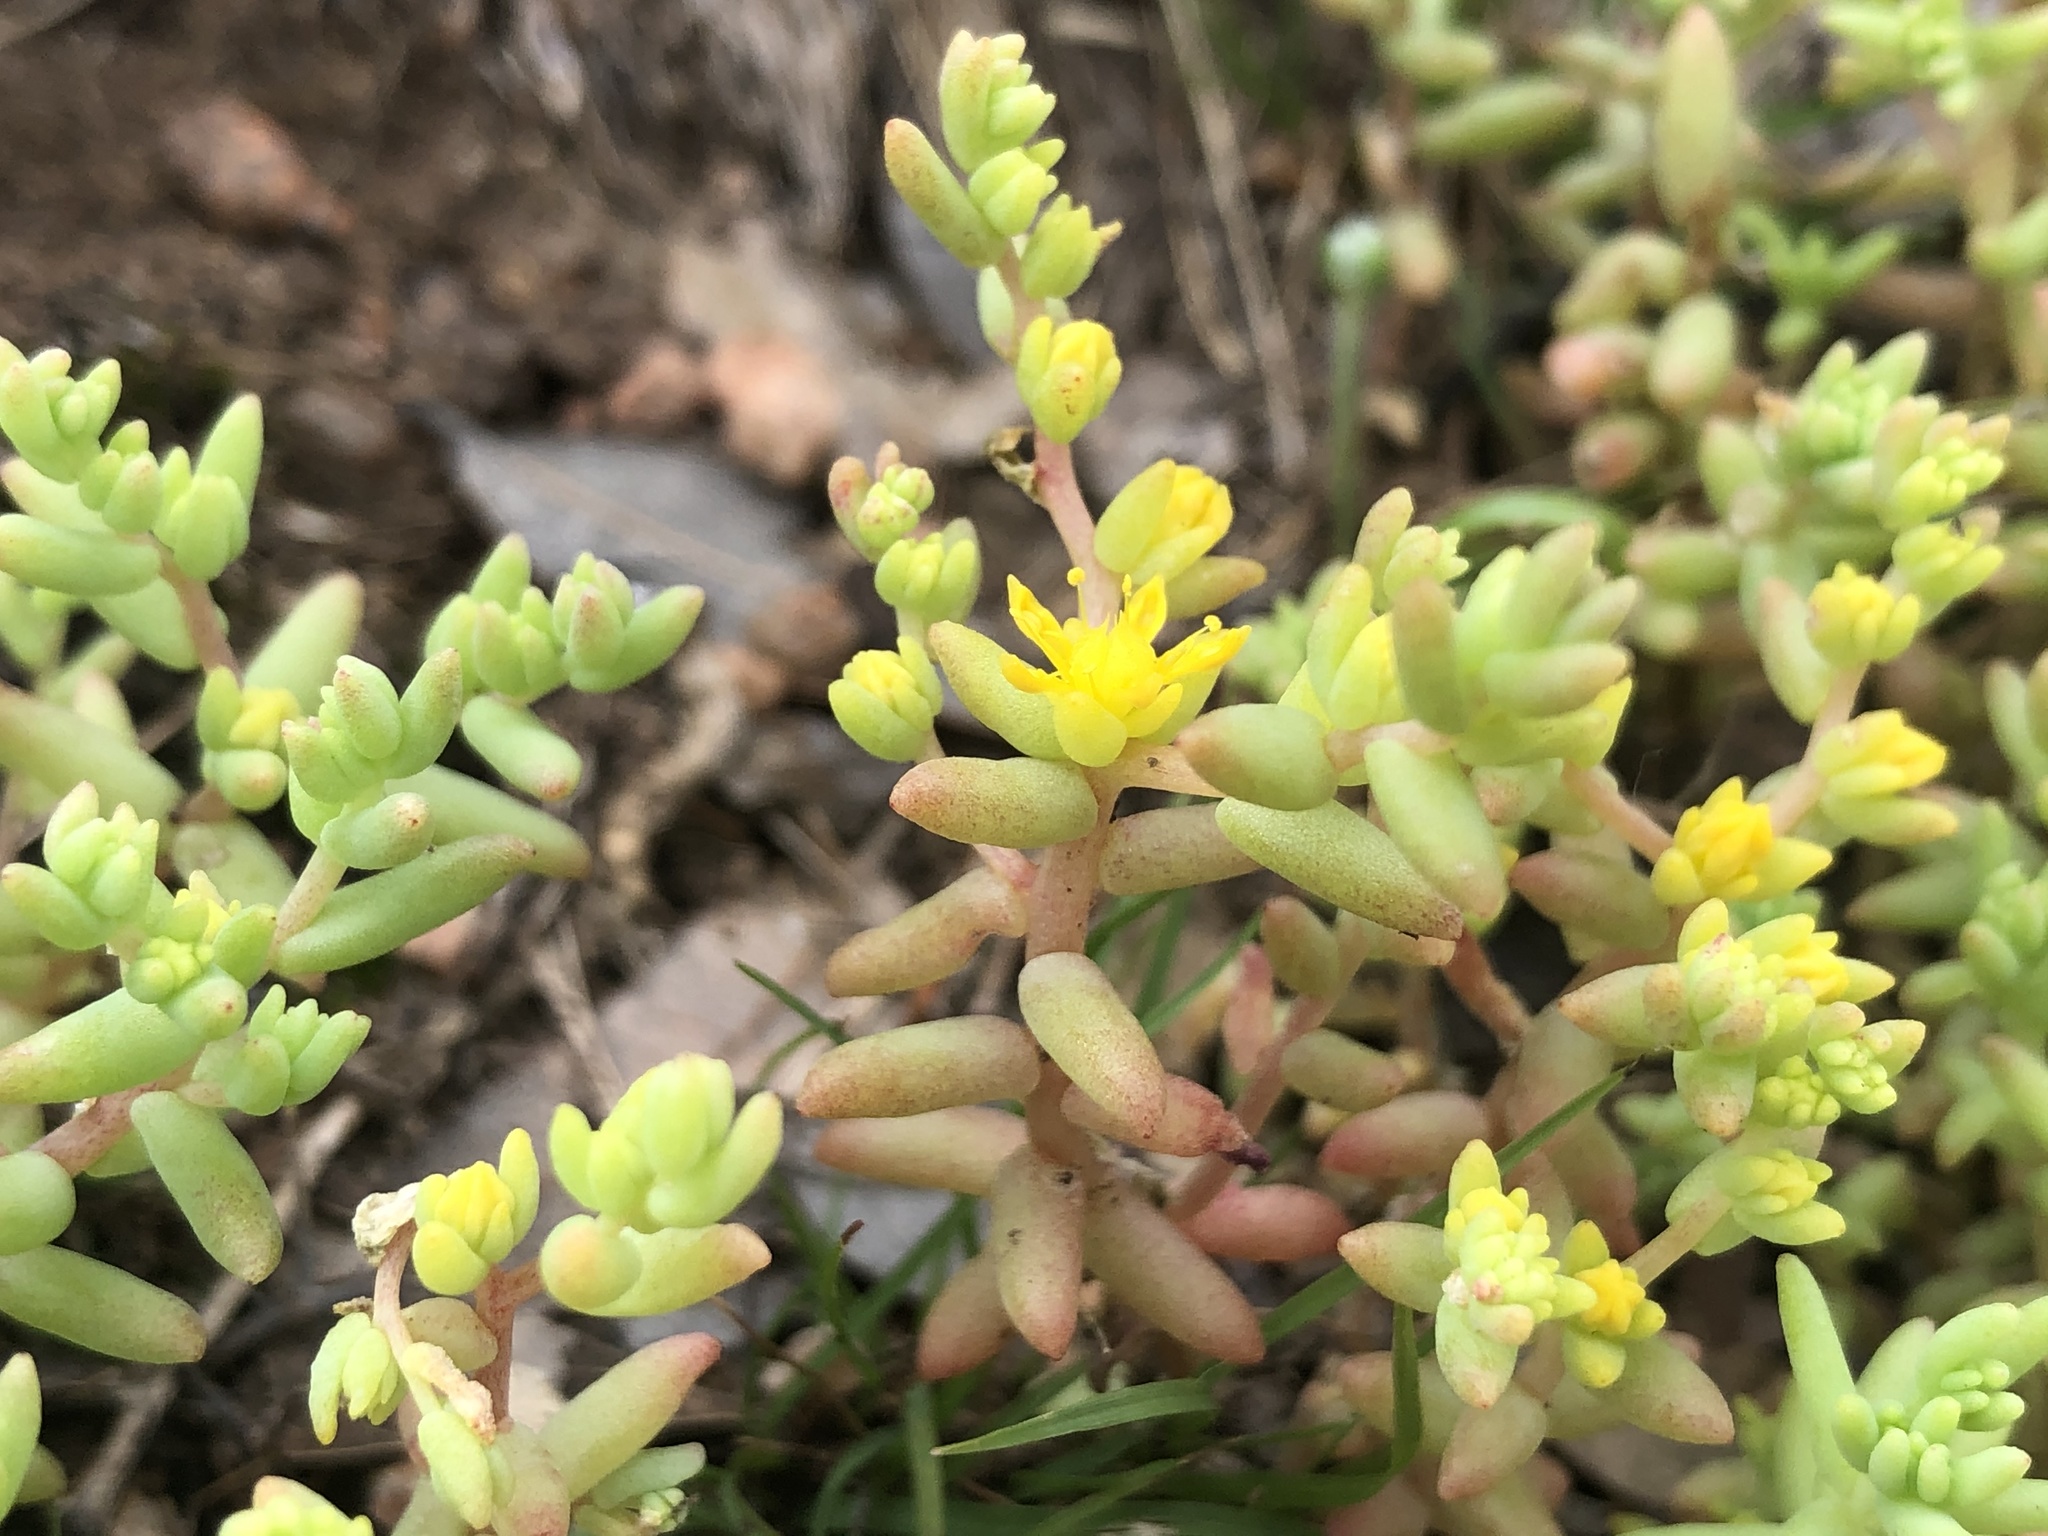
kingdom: Plantae
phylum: Tracheophyta
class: Magnoliopsida
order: Saxifragales
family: Crassulaceae
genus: Sedum
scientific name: Sedum nuttallii
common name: Yellow stonecrop
